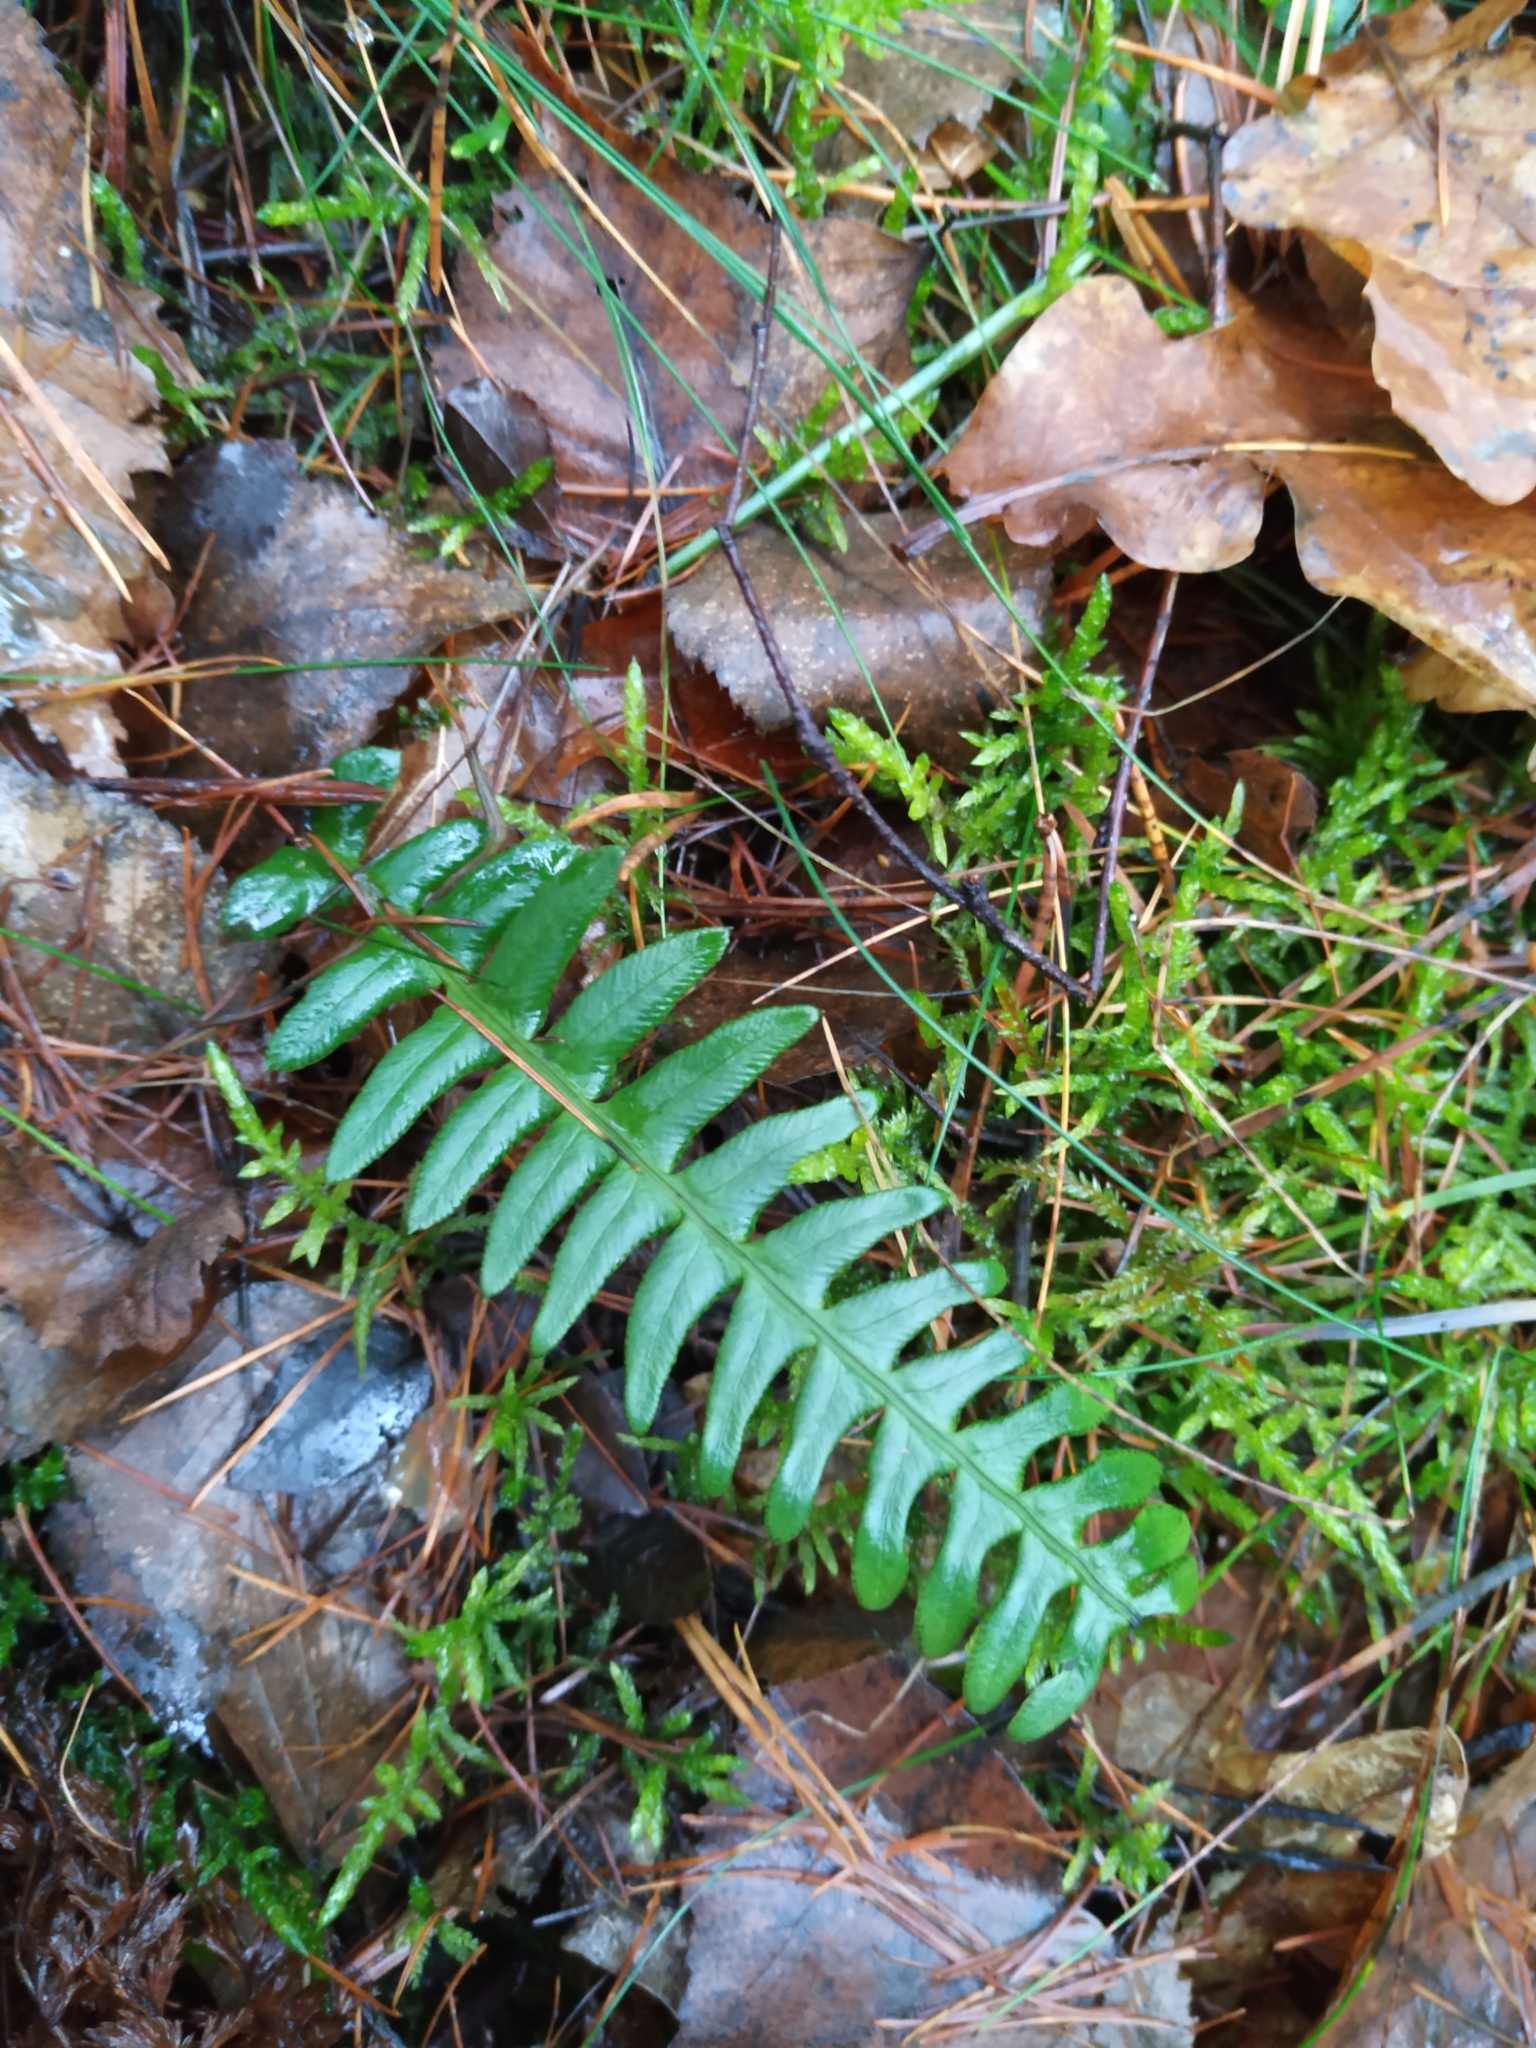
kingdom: Plantae
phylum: Tracheophyta
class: Polypodiopsida
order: Polypodiales
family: Blechnaceae
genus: Struthiopteris
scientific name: Struthiopteris spicant
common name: Deer fern
